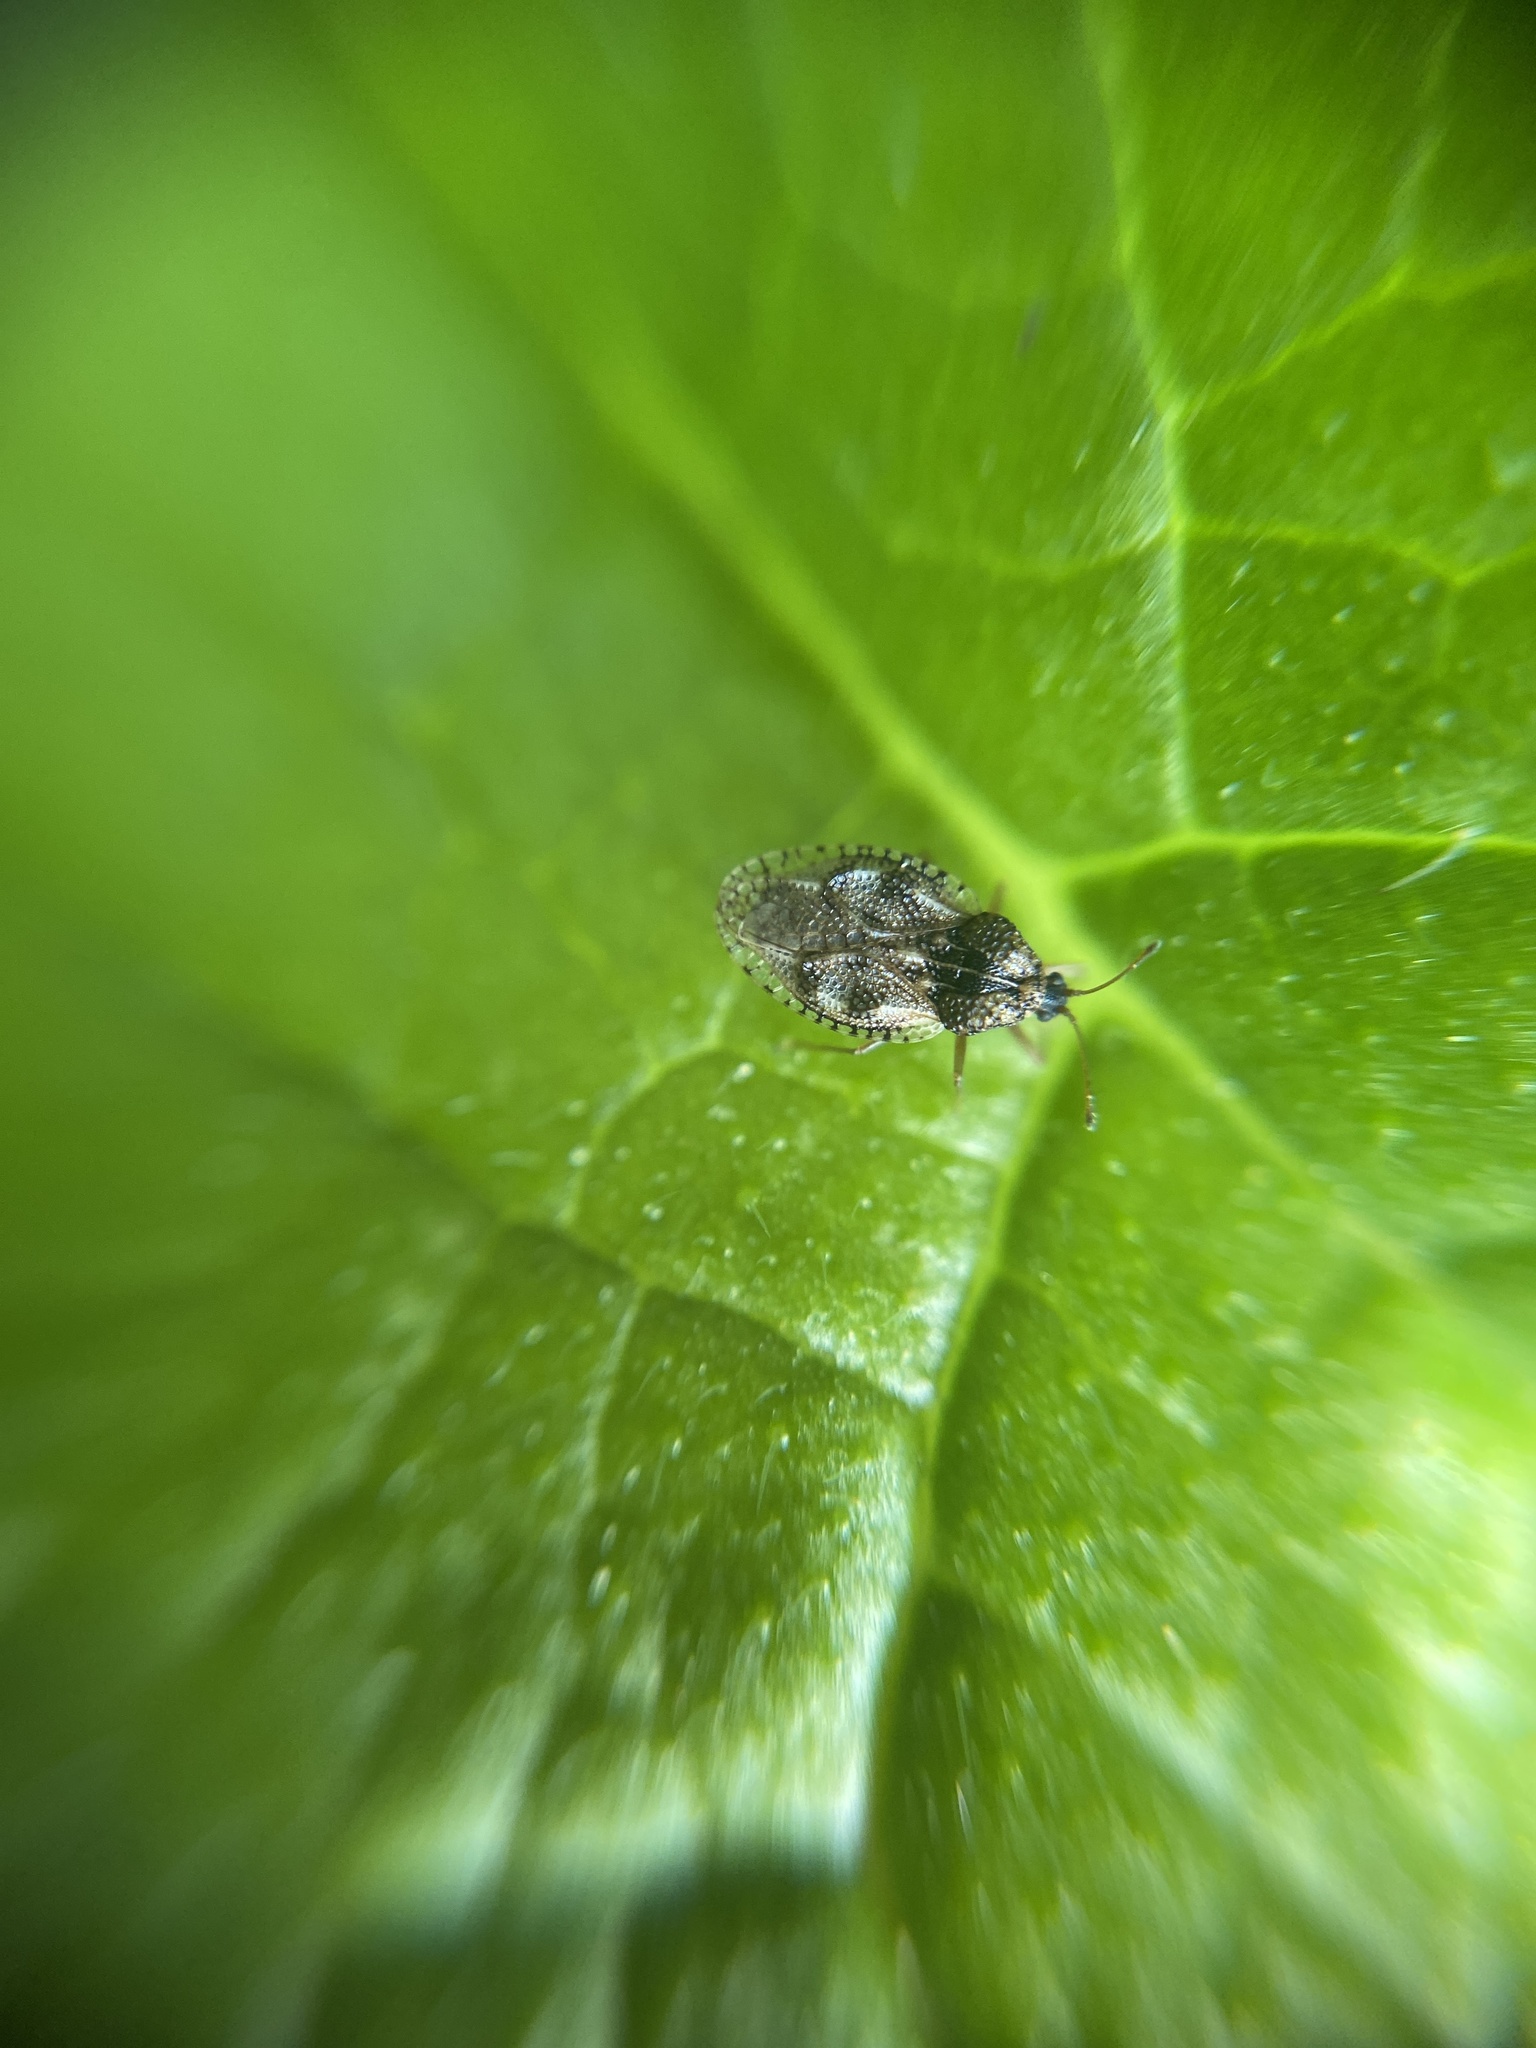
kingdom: Animalia
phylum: Arthropoda
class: Insecta
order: Hemiptera
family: Tingidae
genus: Dictyla
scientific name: Dictyla humuli
